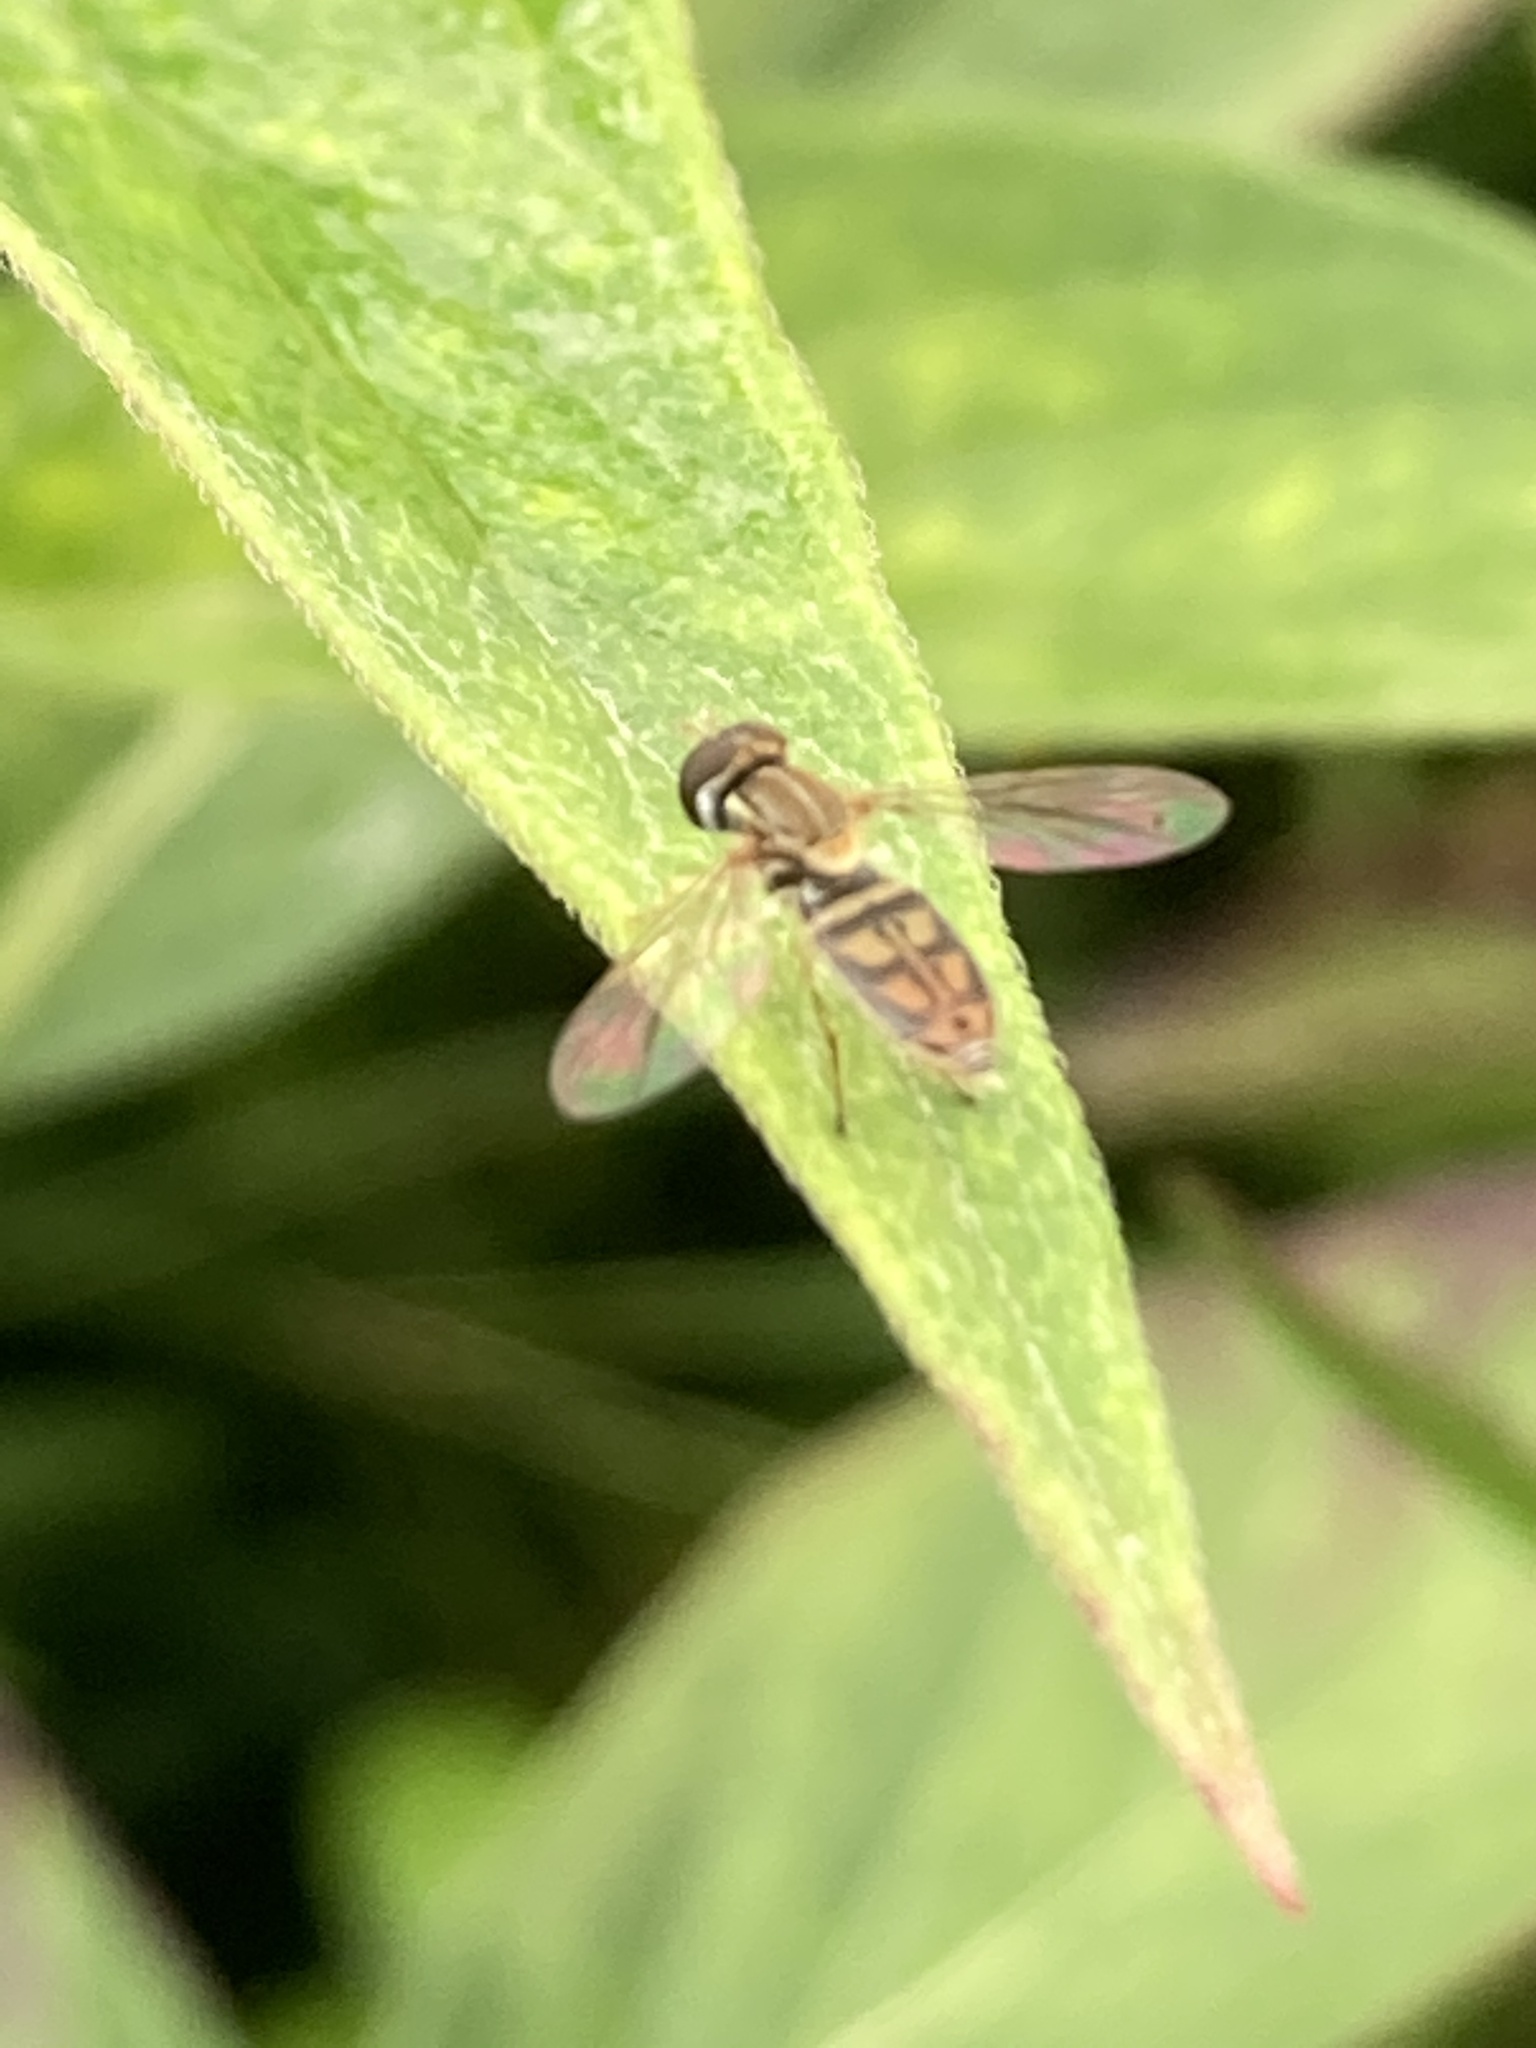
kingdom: Animalia
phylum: Arthropoda
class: Insecta
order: Diptera
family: Syrphidae
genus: Toxomerus
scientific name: Toxomerus marginatus
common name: Syrphid fly
